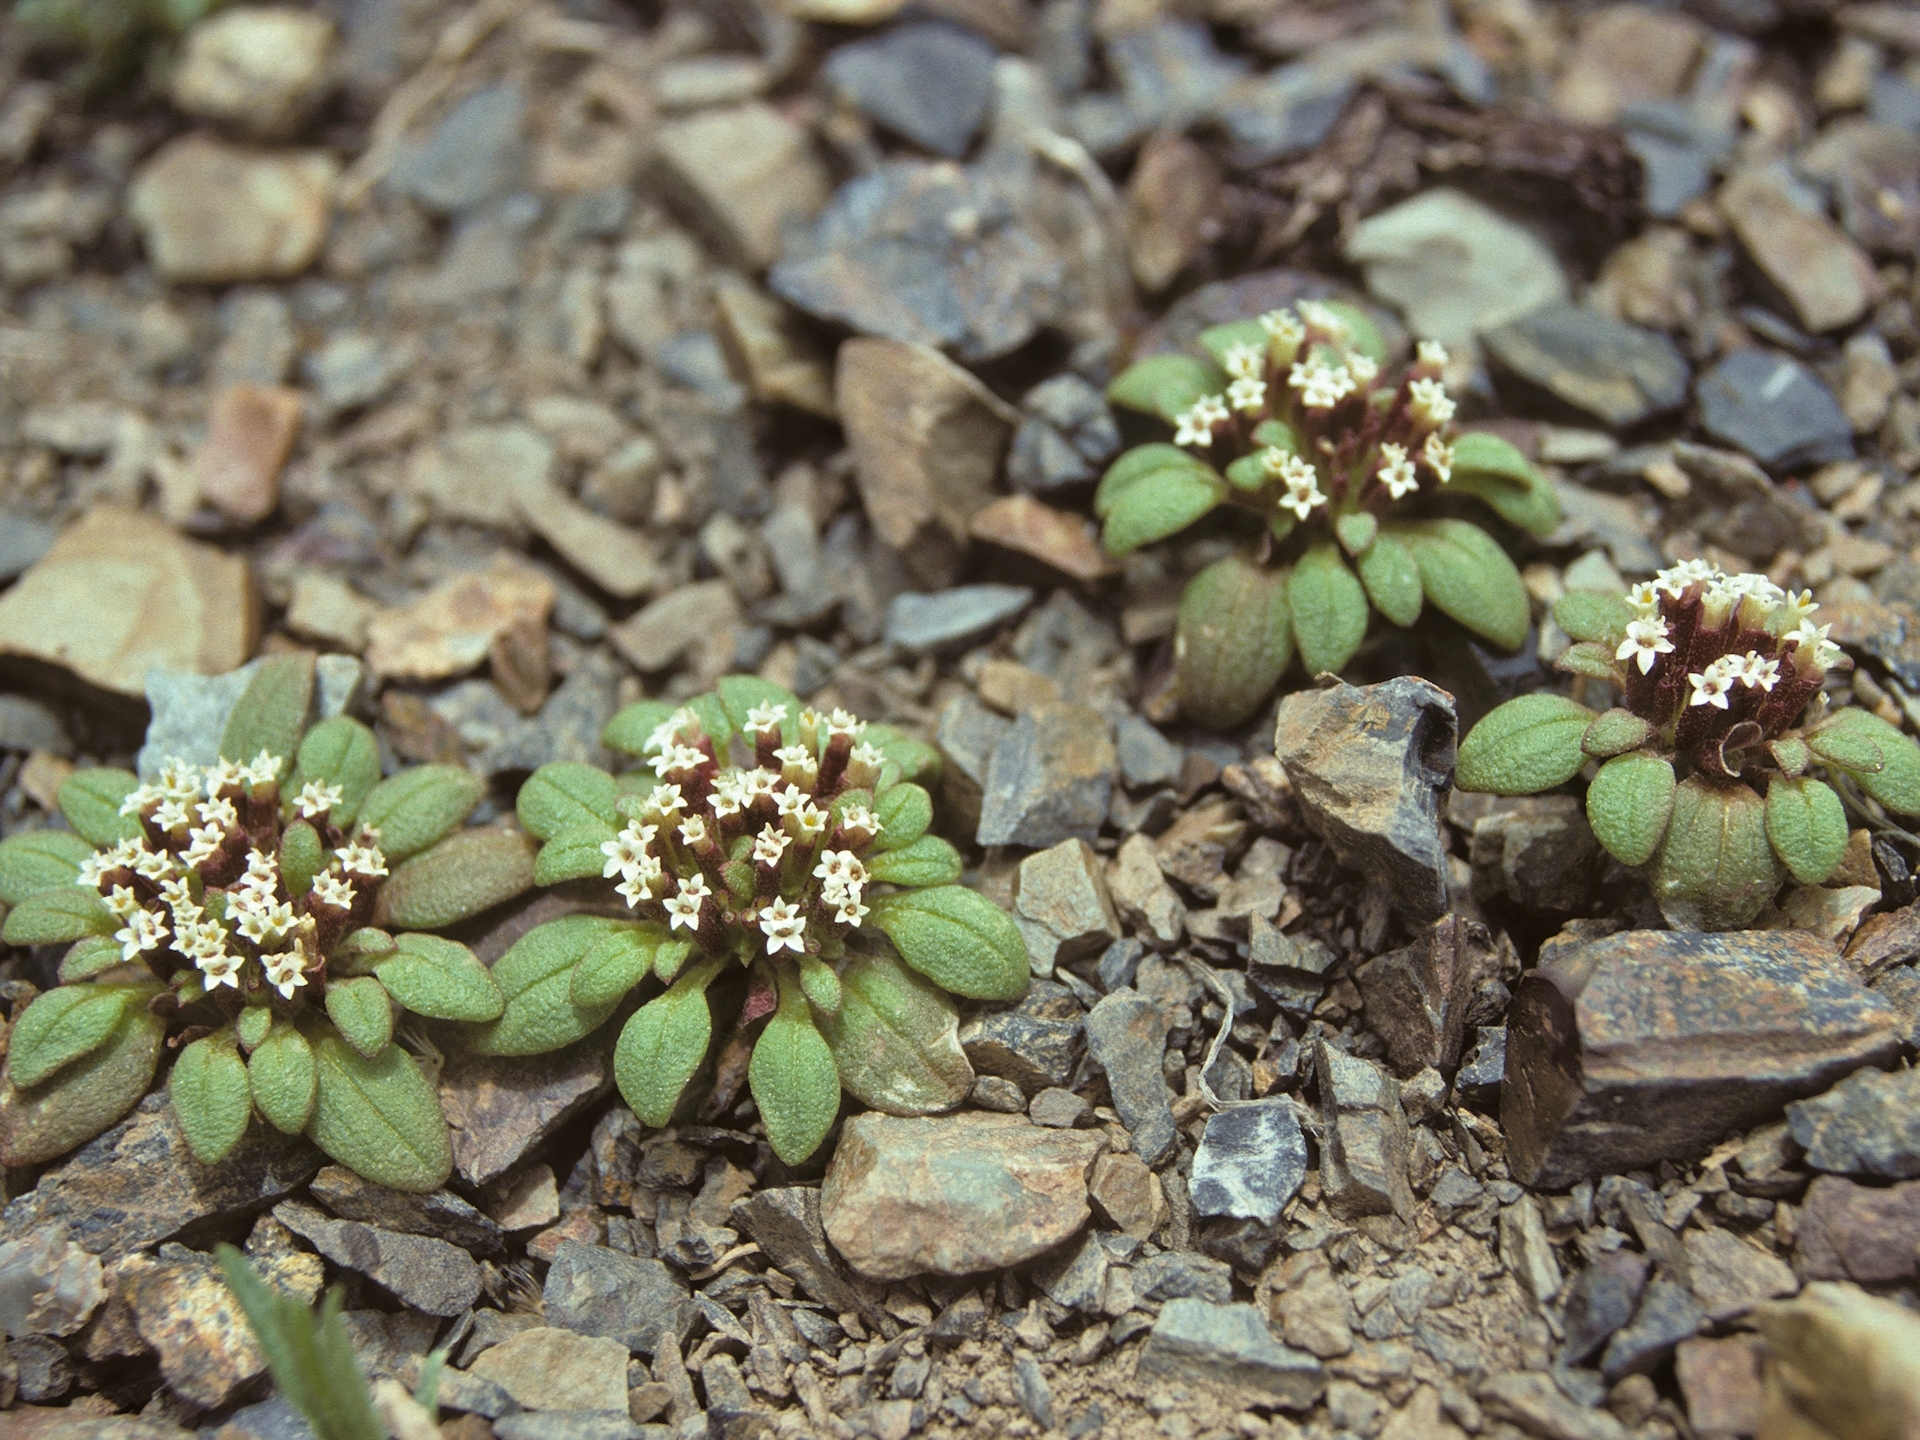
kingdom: Plantae
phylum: Tracheophyta
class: Magnoliopsida
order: Asterales
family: Asteraceae
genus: Dimeresia
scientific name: Dimeresia howellii
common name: Doublet
